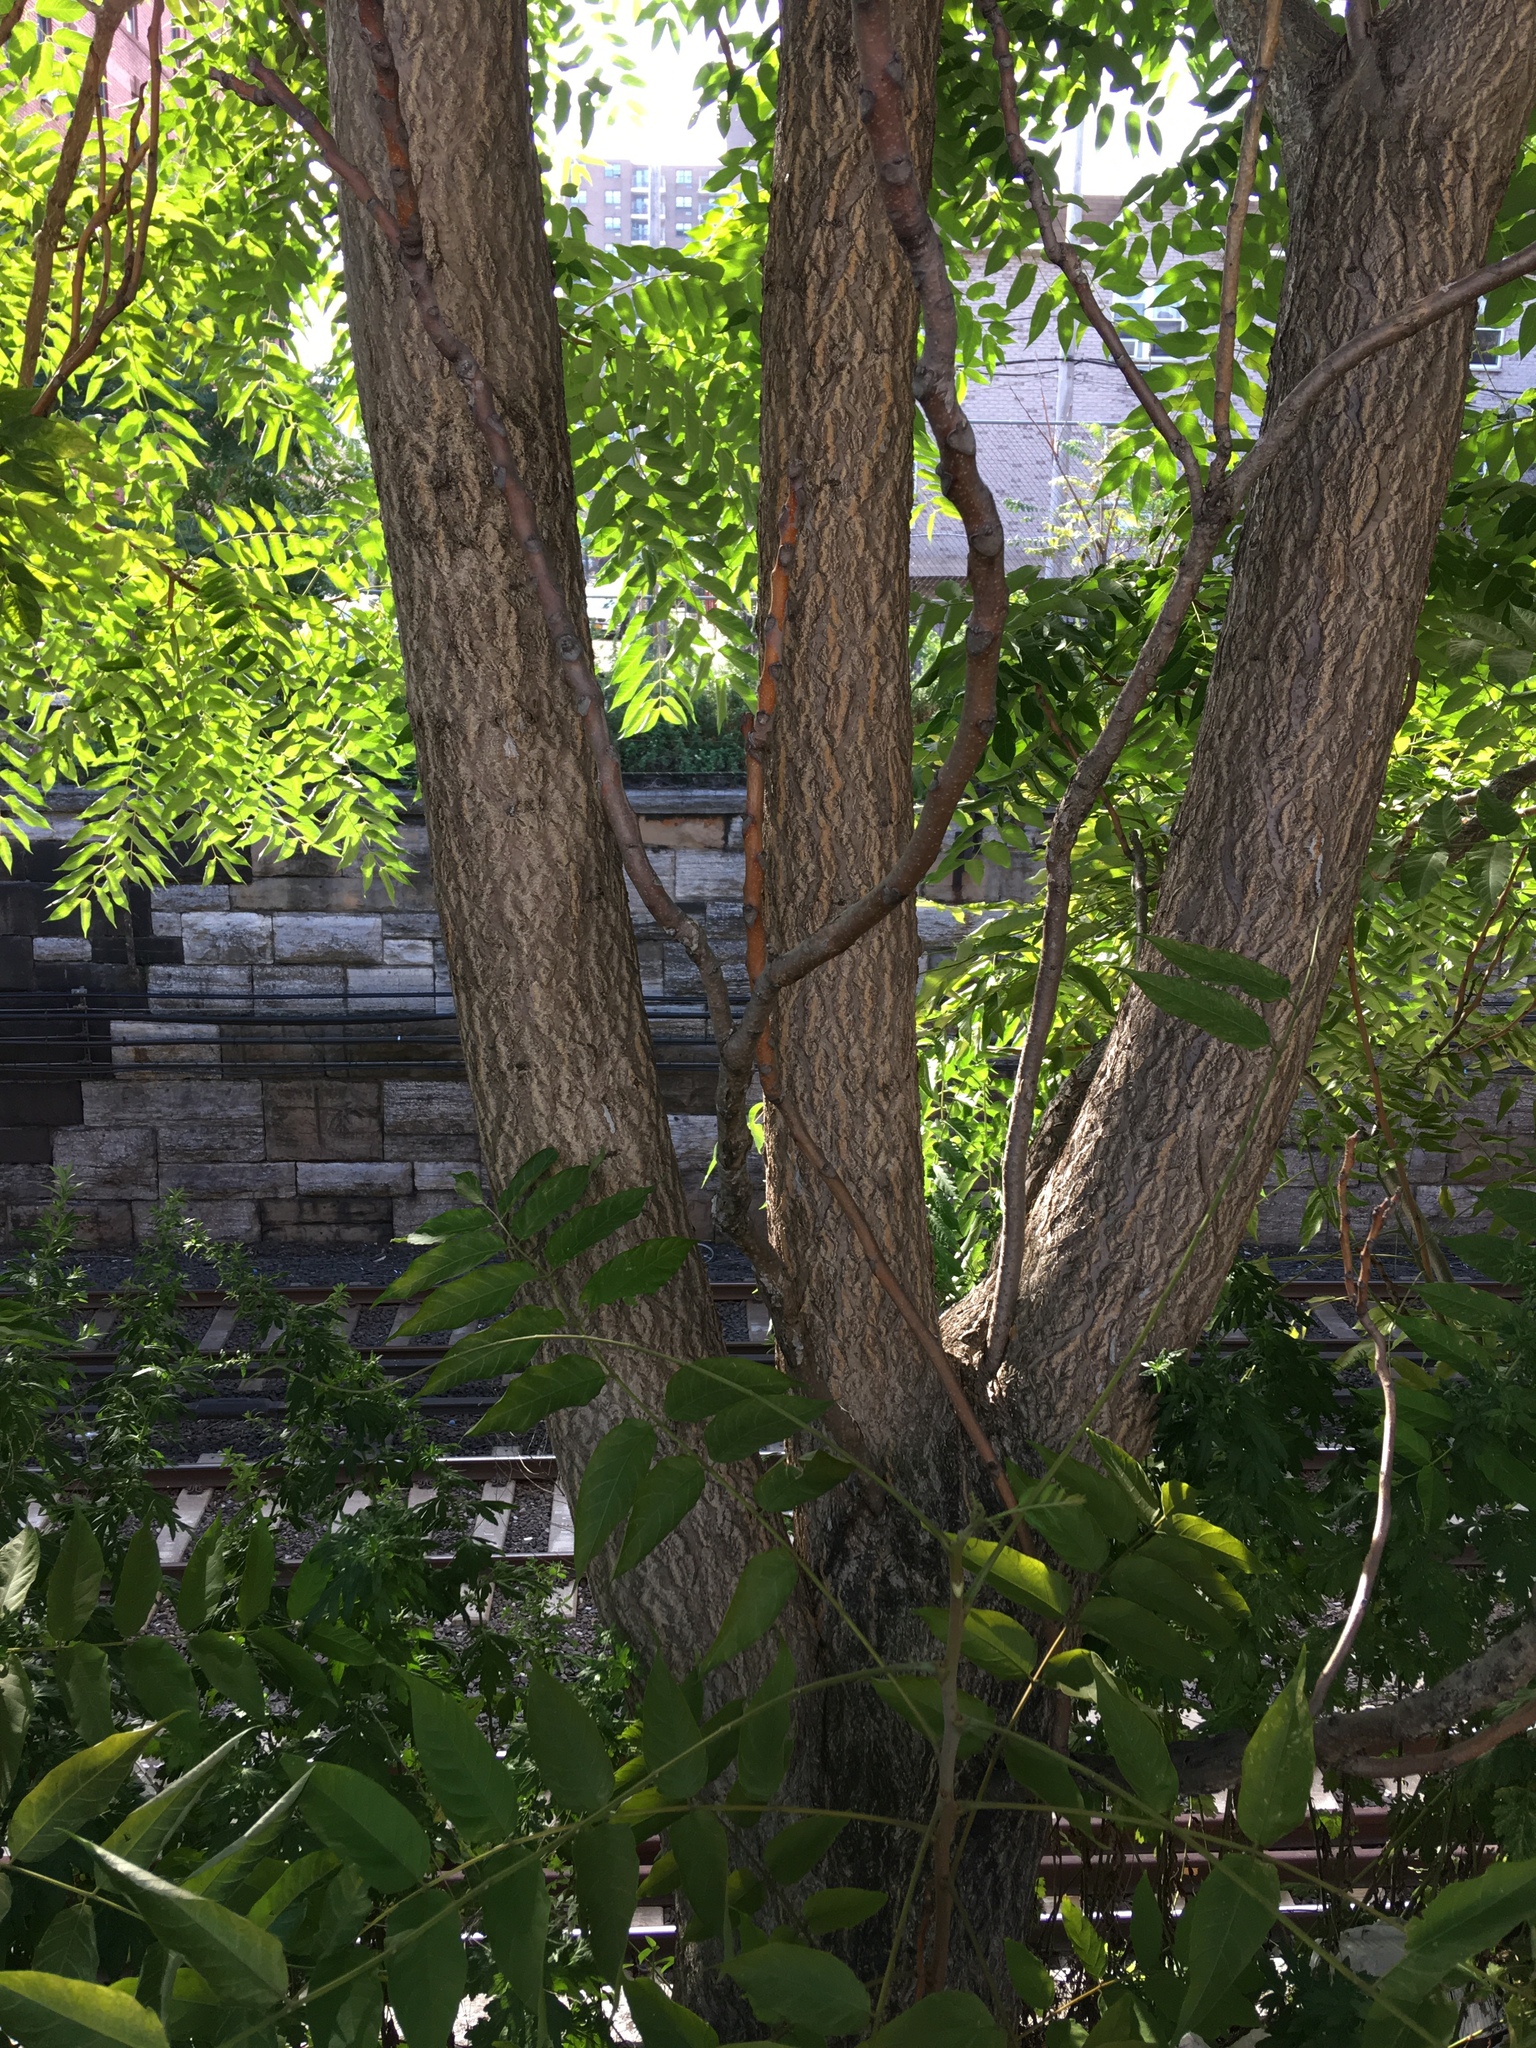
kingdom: Plantae
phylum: Tracheophyta
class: Magnoliopsida
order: Sapindales
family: Simaroubaceae
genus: Ailanthus
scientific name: Ailanthus altissima
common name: Tree-of-heaven
